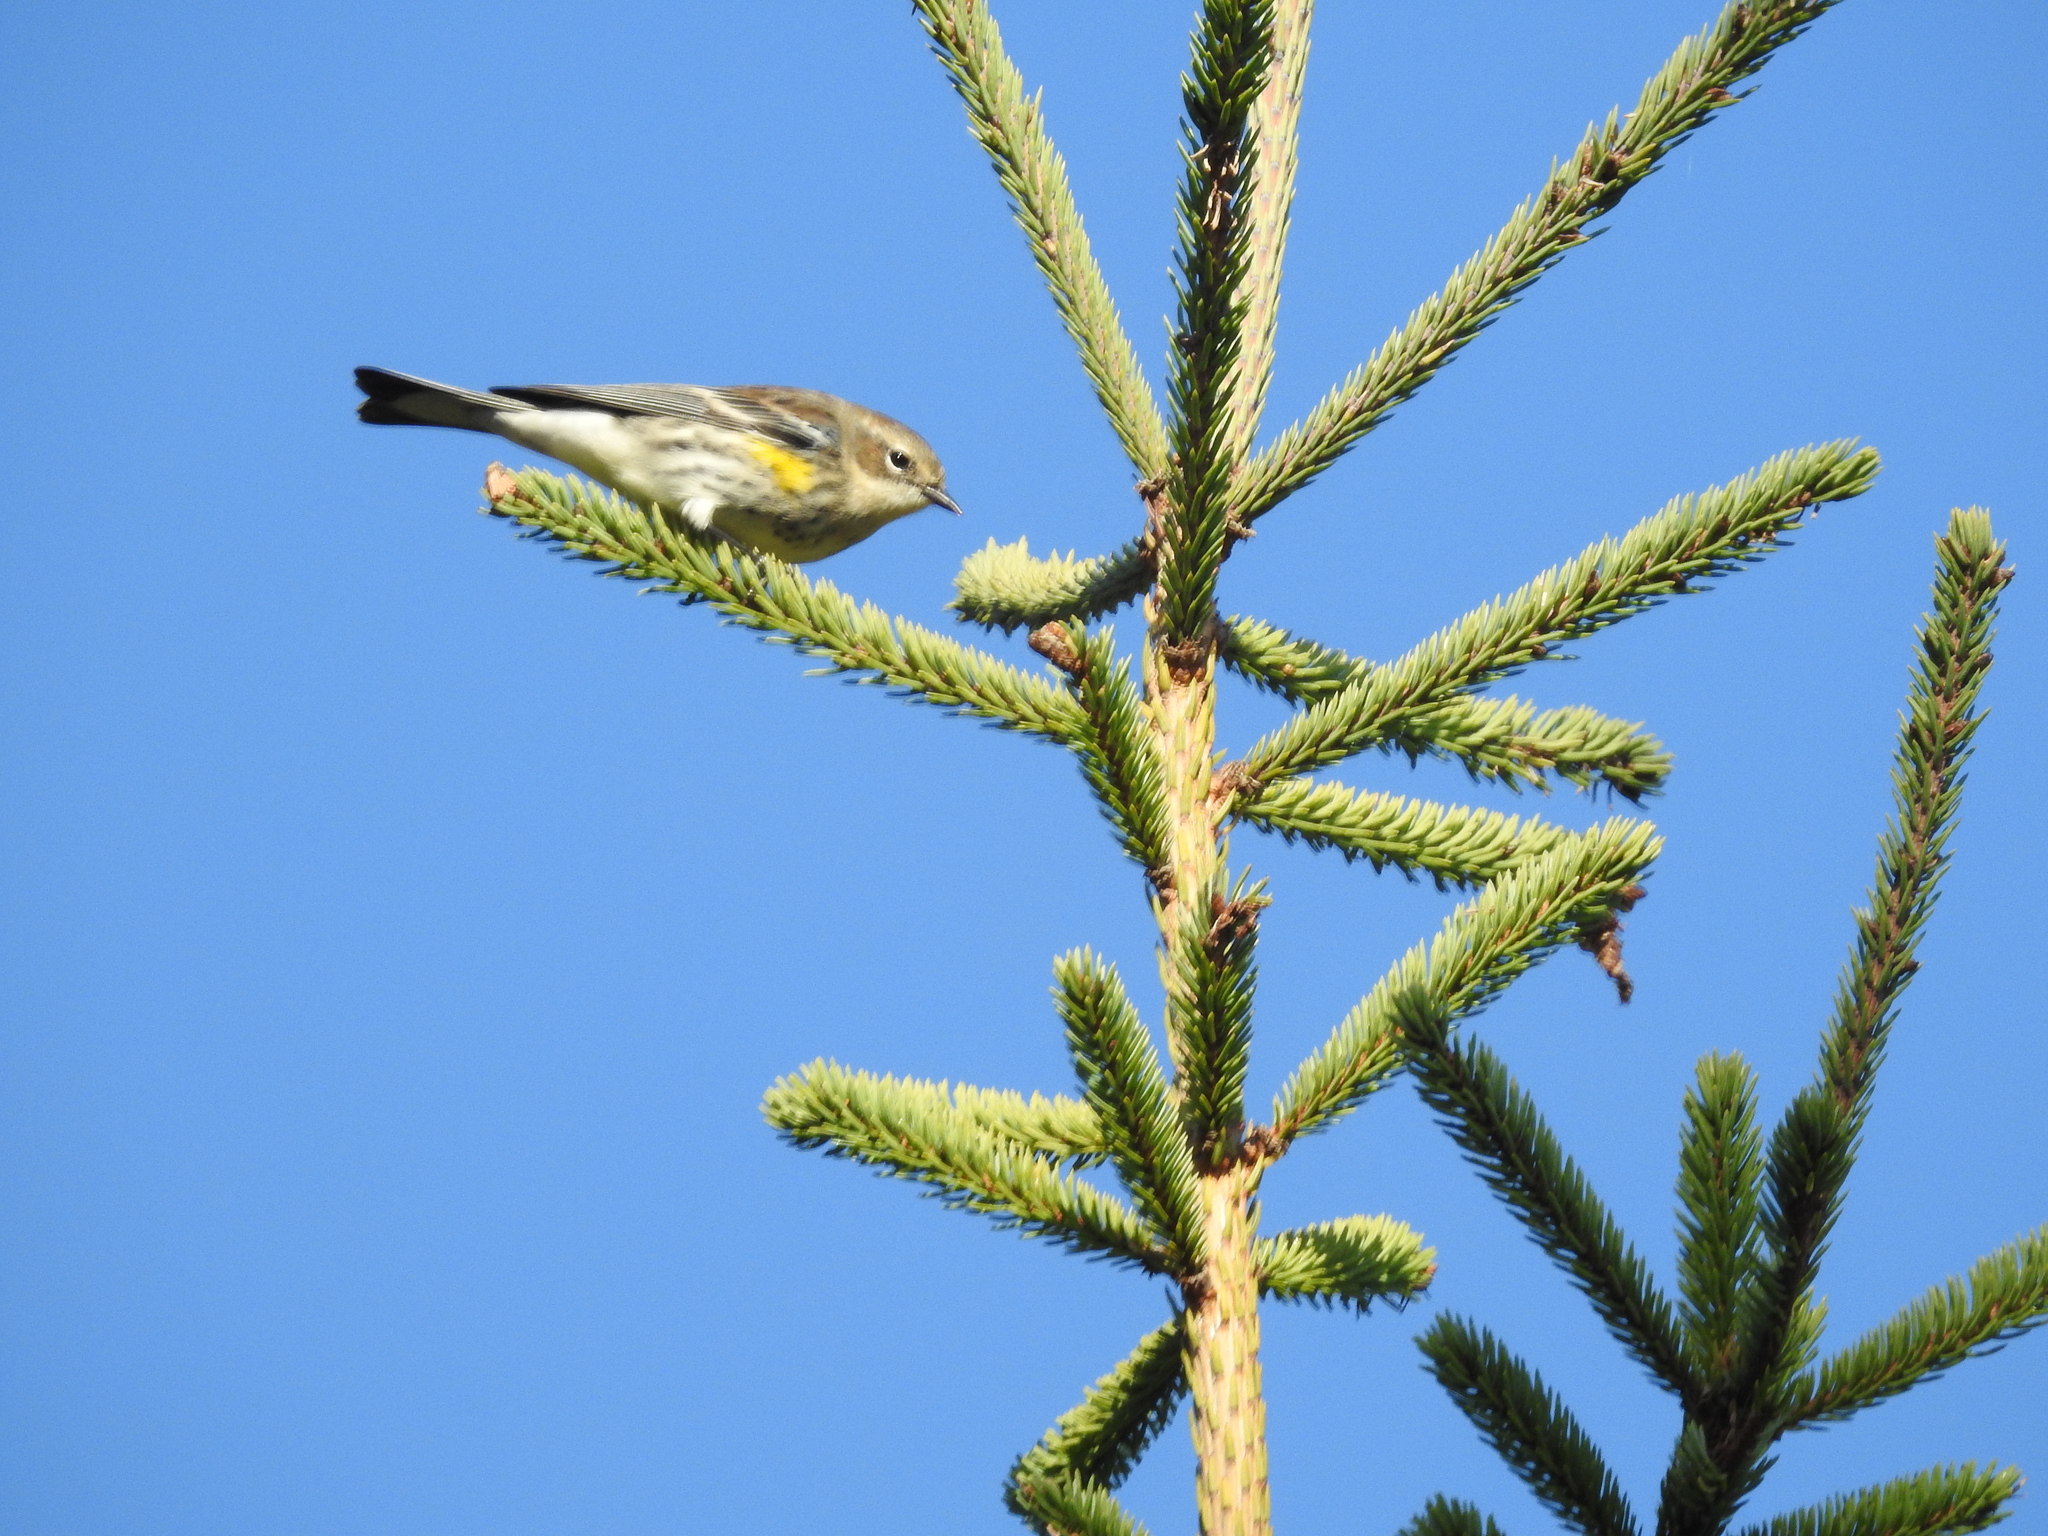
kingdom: Animalia
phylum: Chordata
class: Aves
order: Passeriformes
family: Parulidae
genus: Setophaga
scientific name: Setophaga coronata
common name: Myrtle warbler
